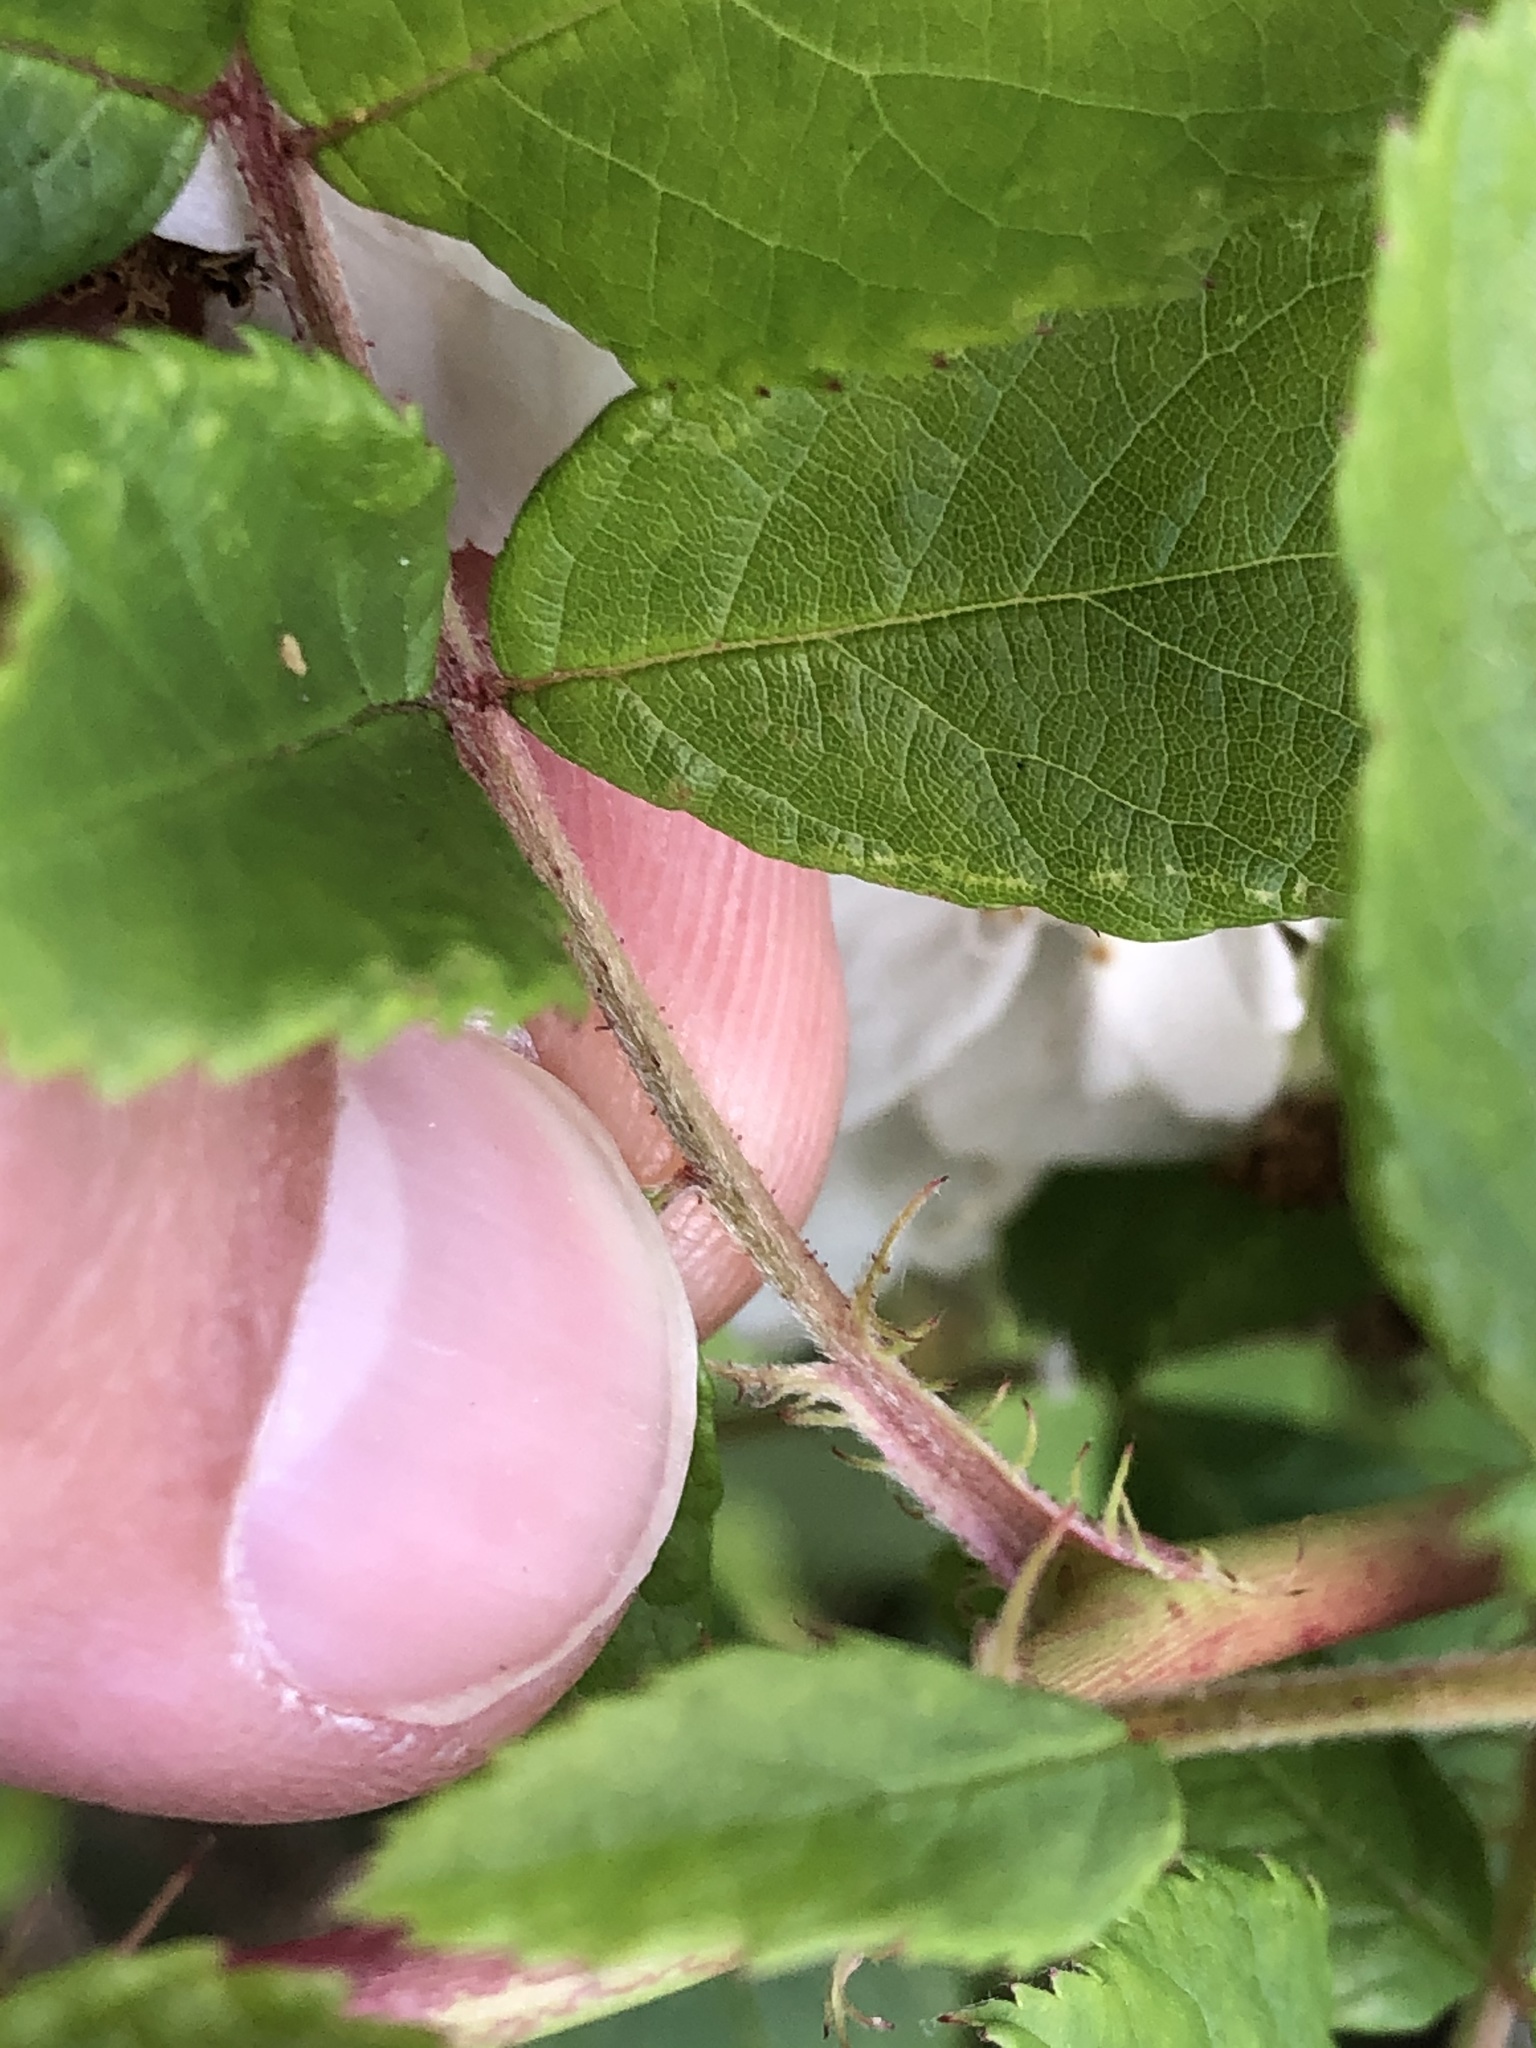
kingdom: Plantae
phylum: Tracheophyta
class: Magnoliopsida
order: Rosales
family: Rosaceae
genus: Rosa
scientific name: Rosa multiflora
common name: Multiflora rose
